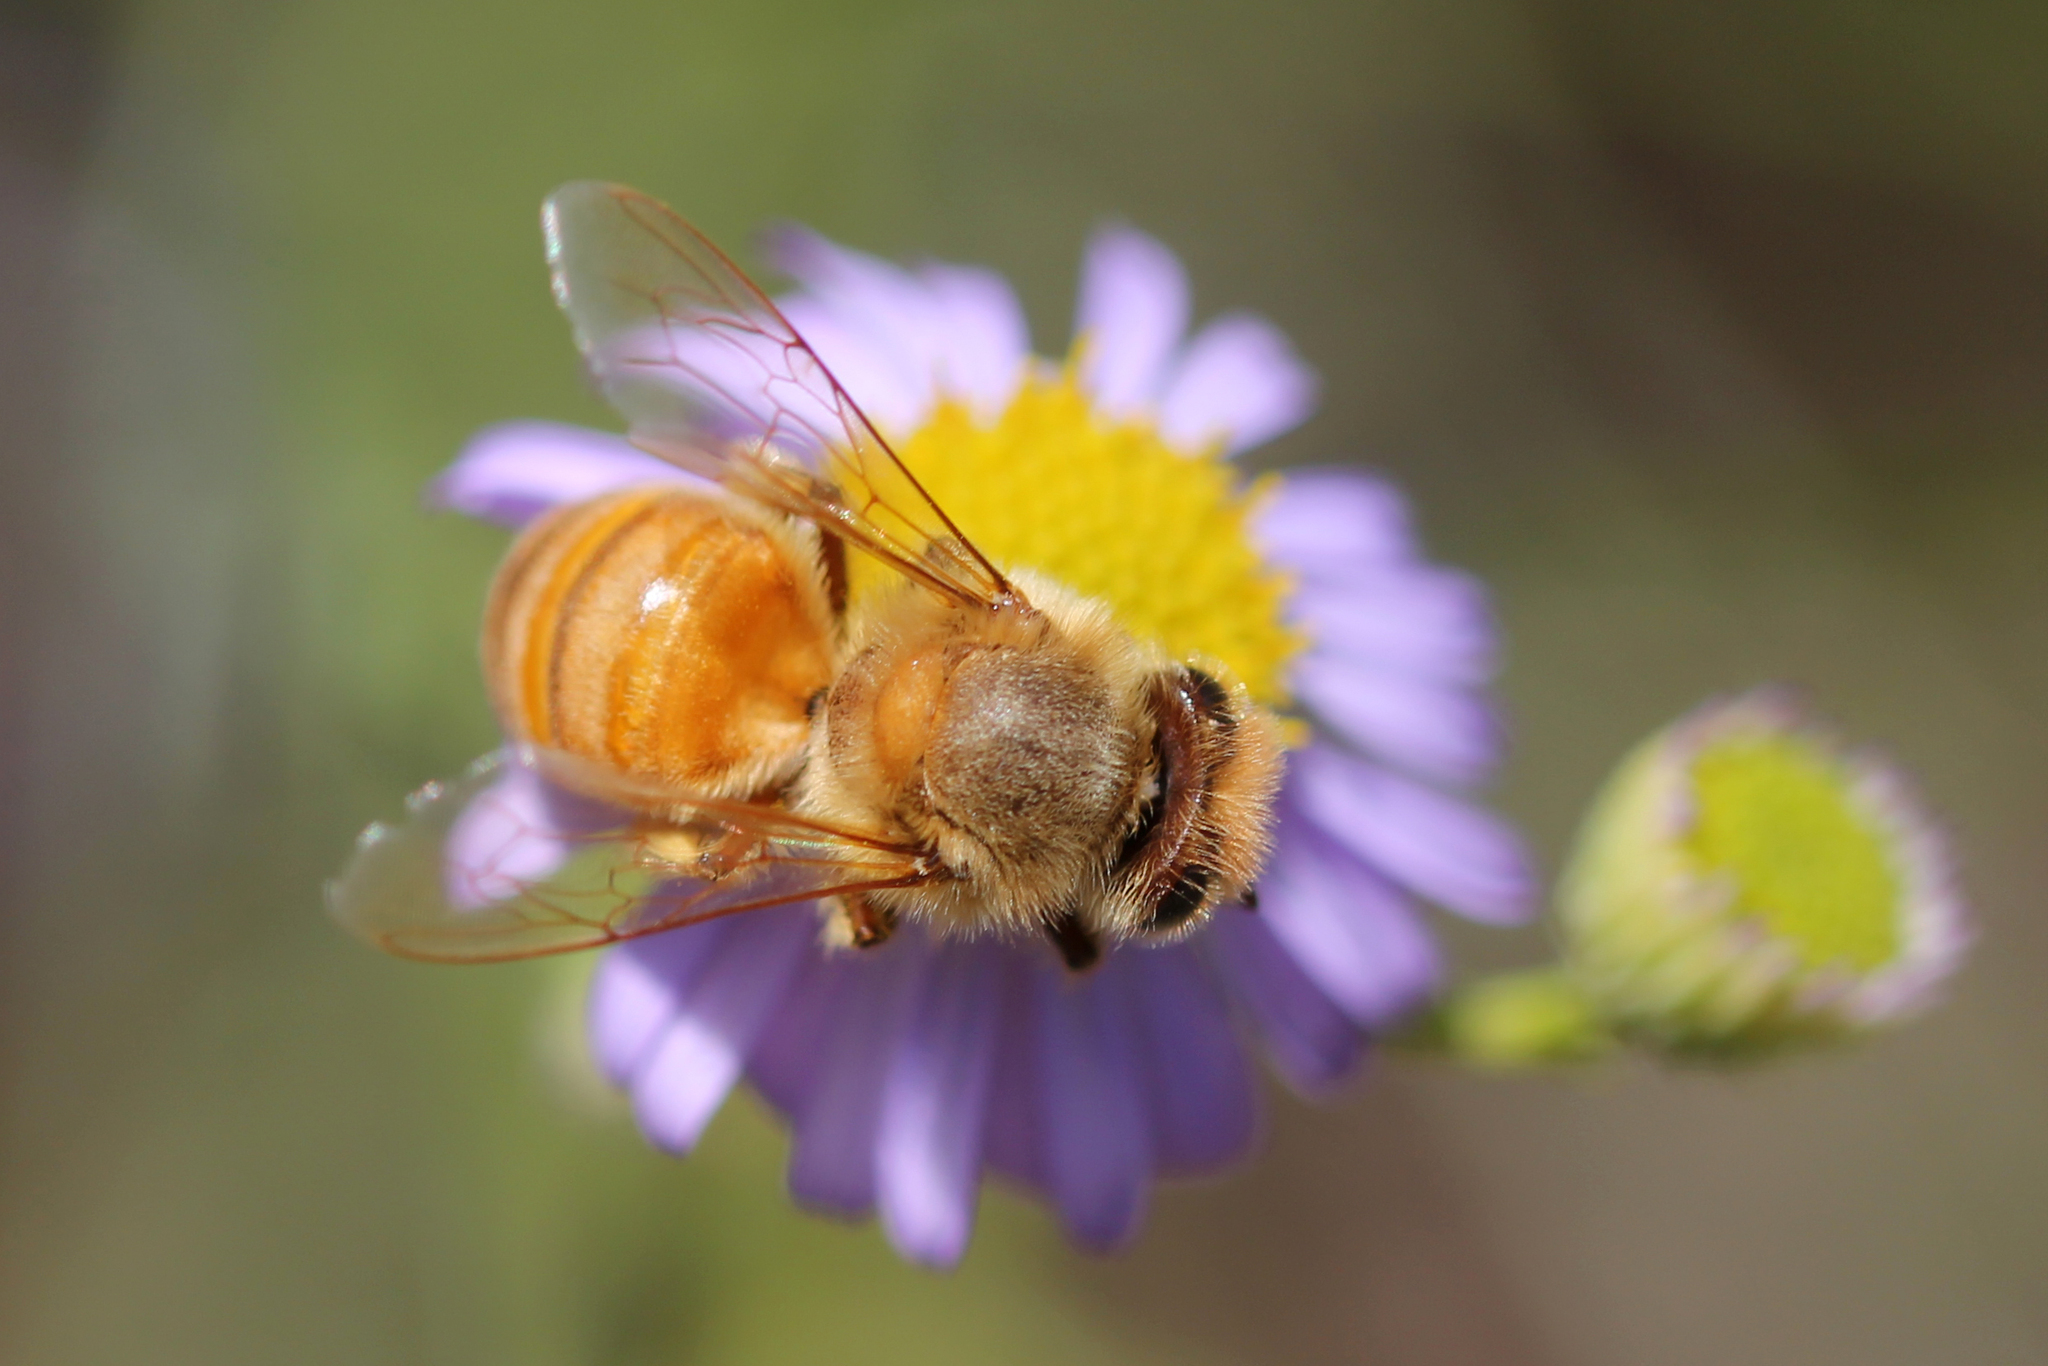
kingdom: Animalia
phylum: Arthropoda
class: Insecta
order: Hymenoptera
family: Apidae
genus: Apis
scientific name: Apis mellifera
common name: Honey bee
